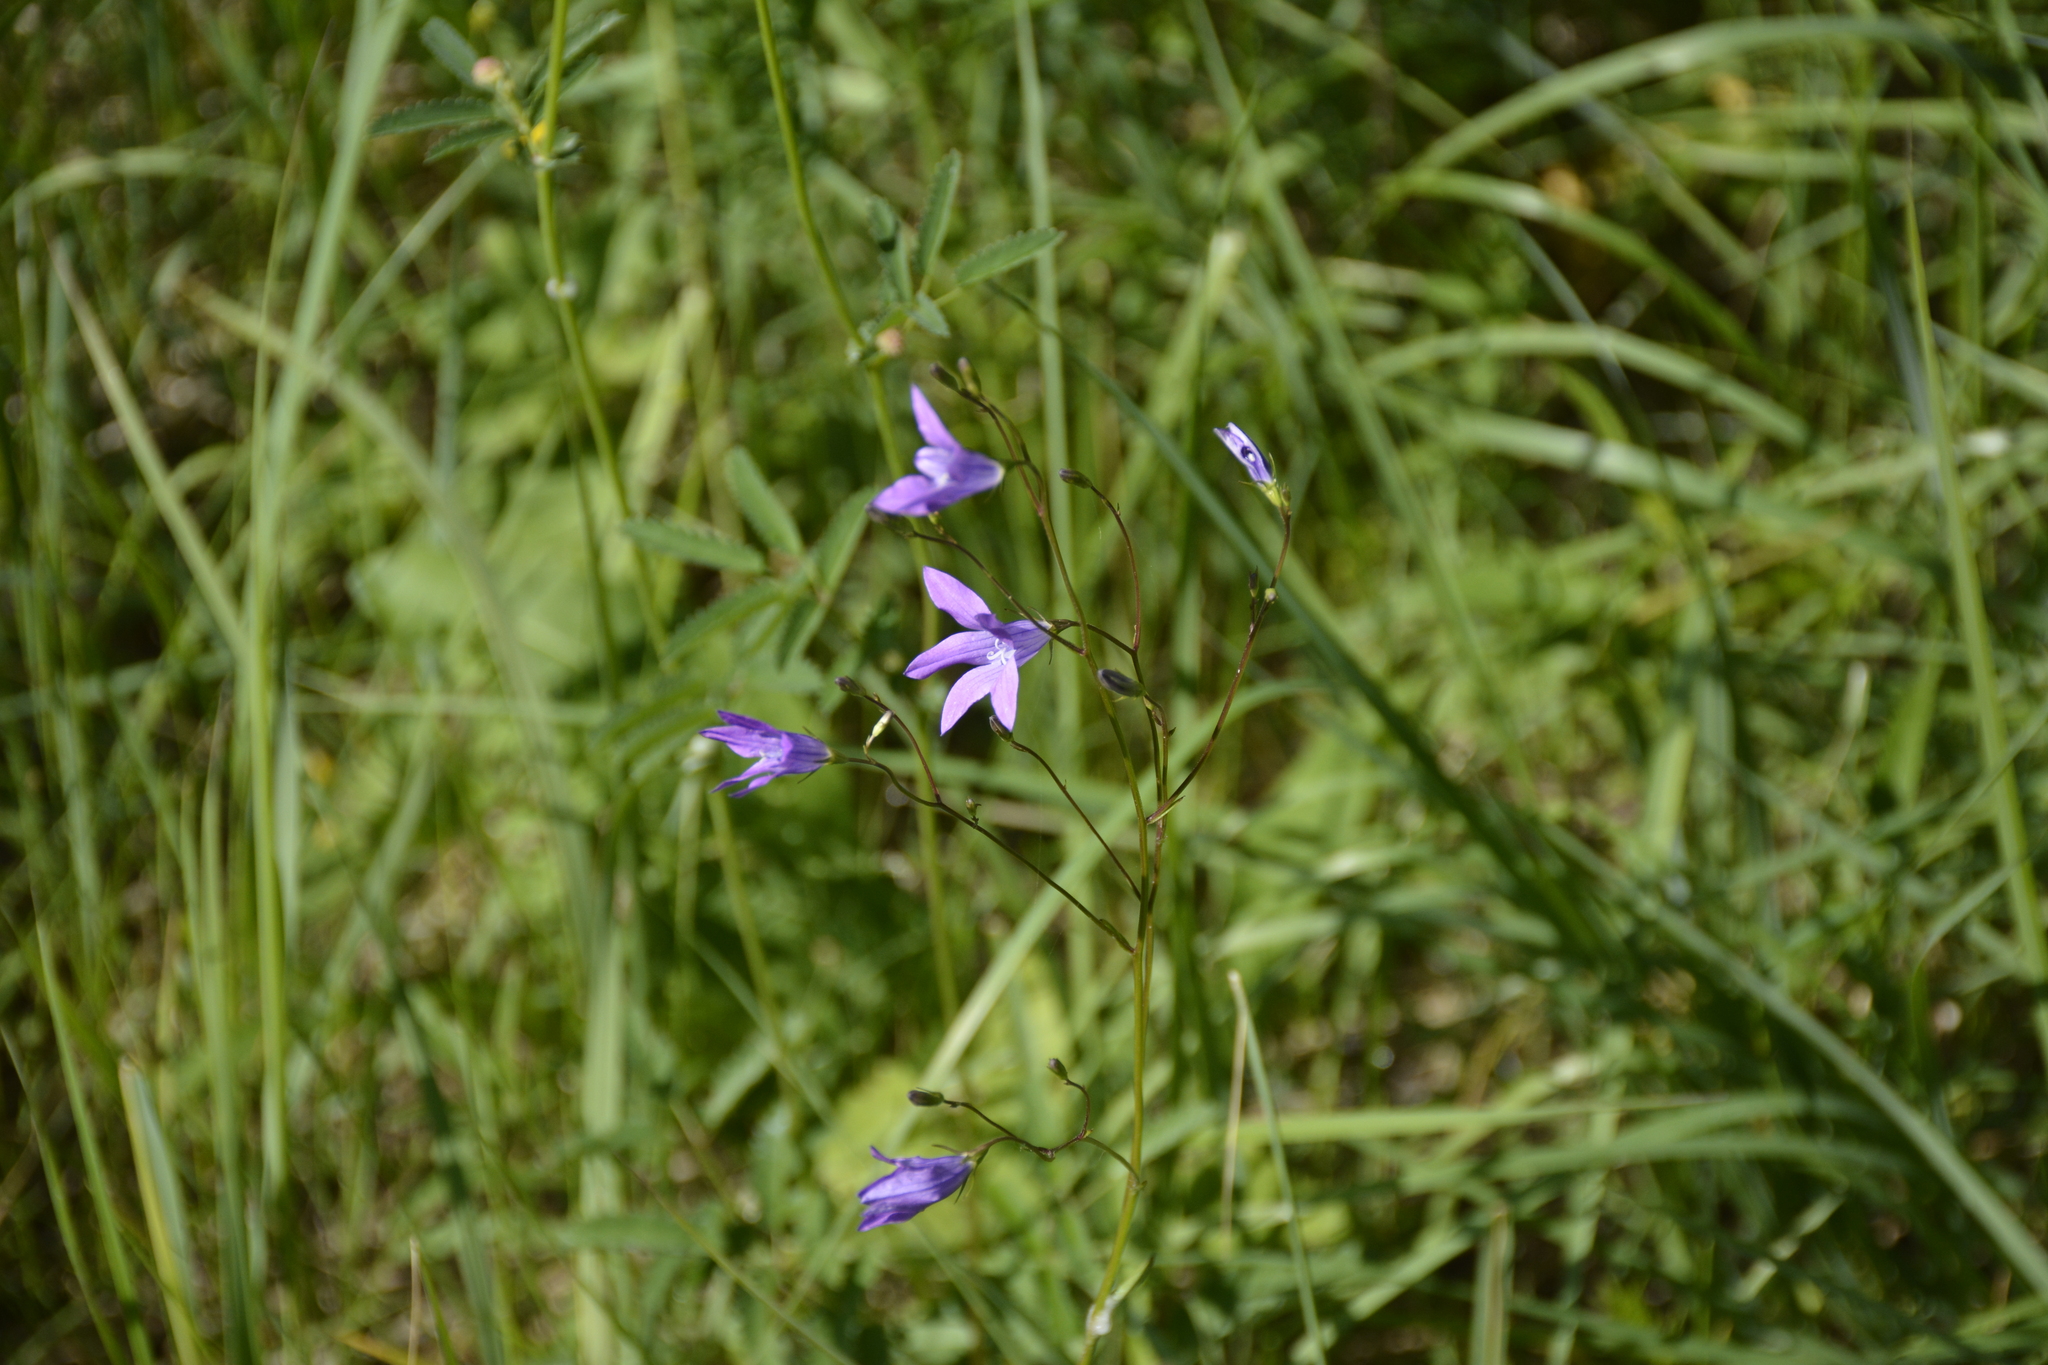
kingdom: Plantae
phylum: Tracheophyta
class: Magnoliopsida
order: Asterales
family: Campanulaceae
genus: Campanula
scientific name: Campanula patula
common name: Spreading bellflower
